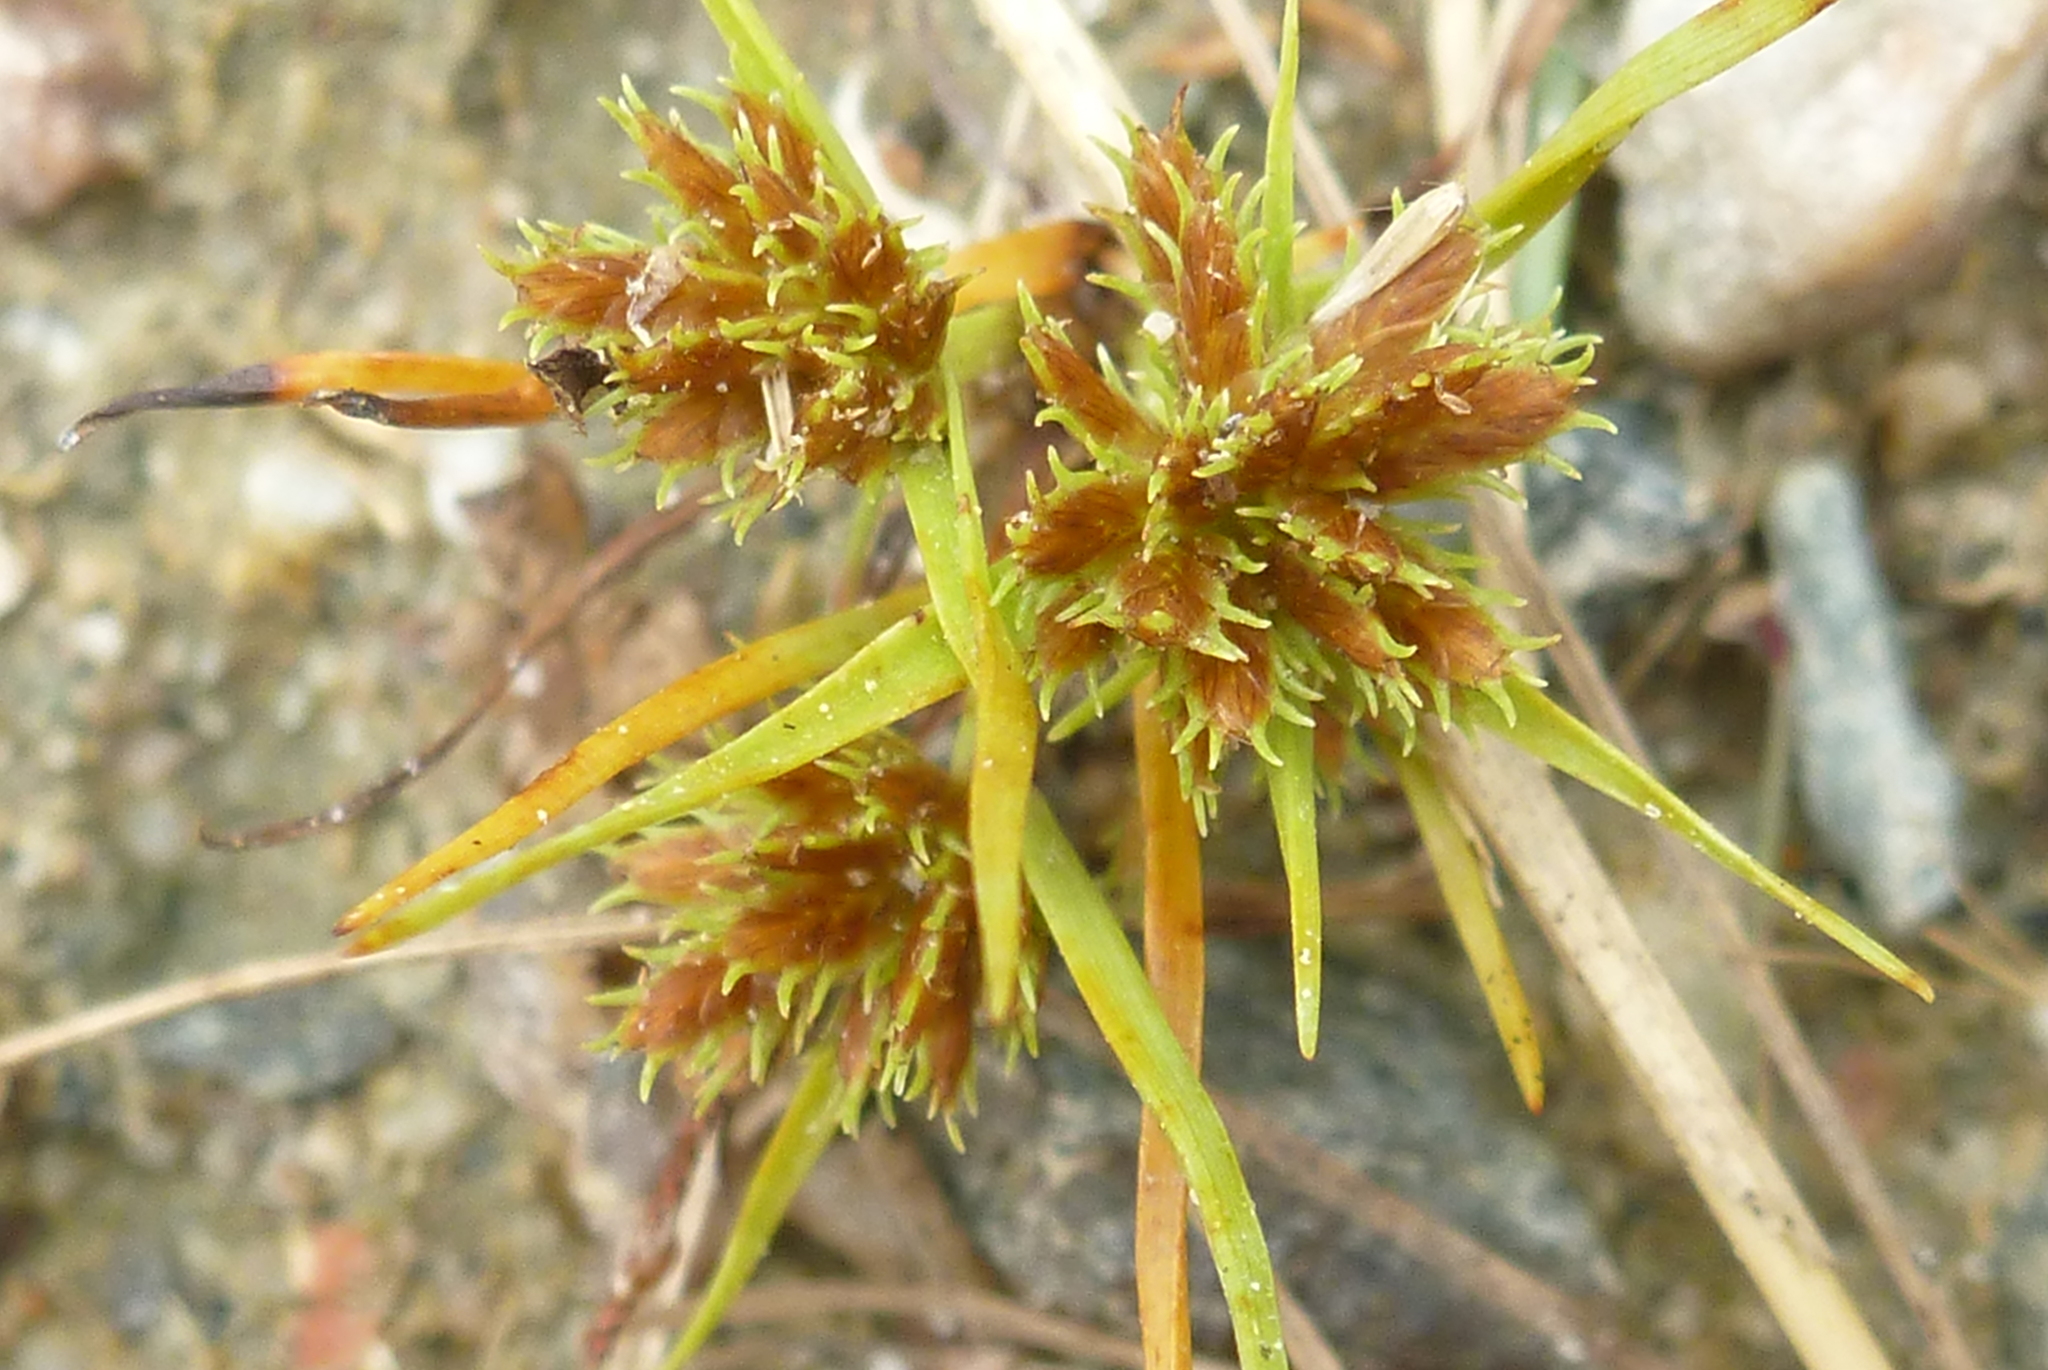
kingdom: Plantae
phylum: Tracheophyta
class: Liliopsida
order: Poales
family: Cyperaceae
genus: Cyperus
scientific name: Cyperus squarrosus
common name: Awned cyperus
